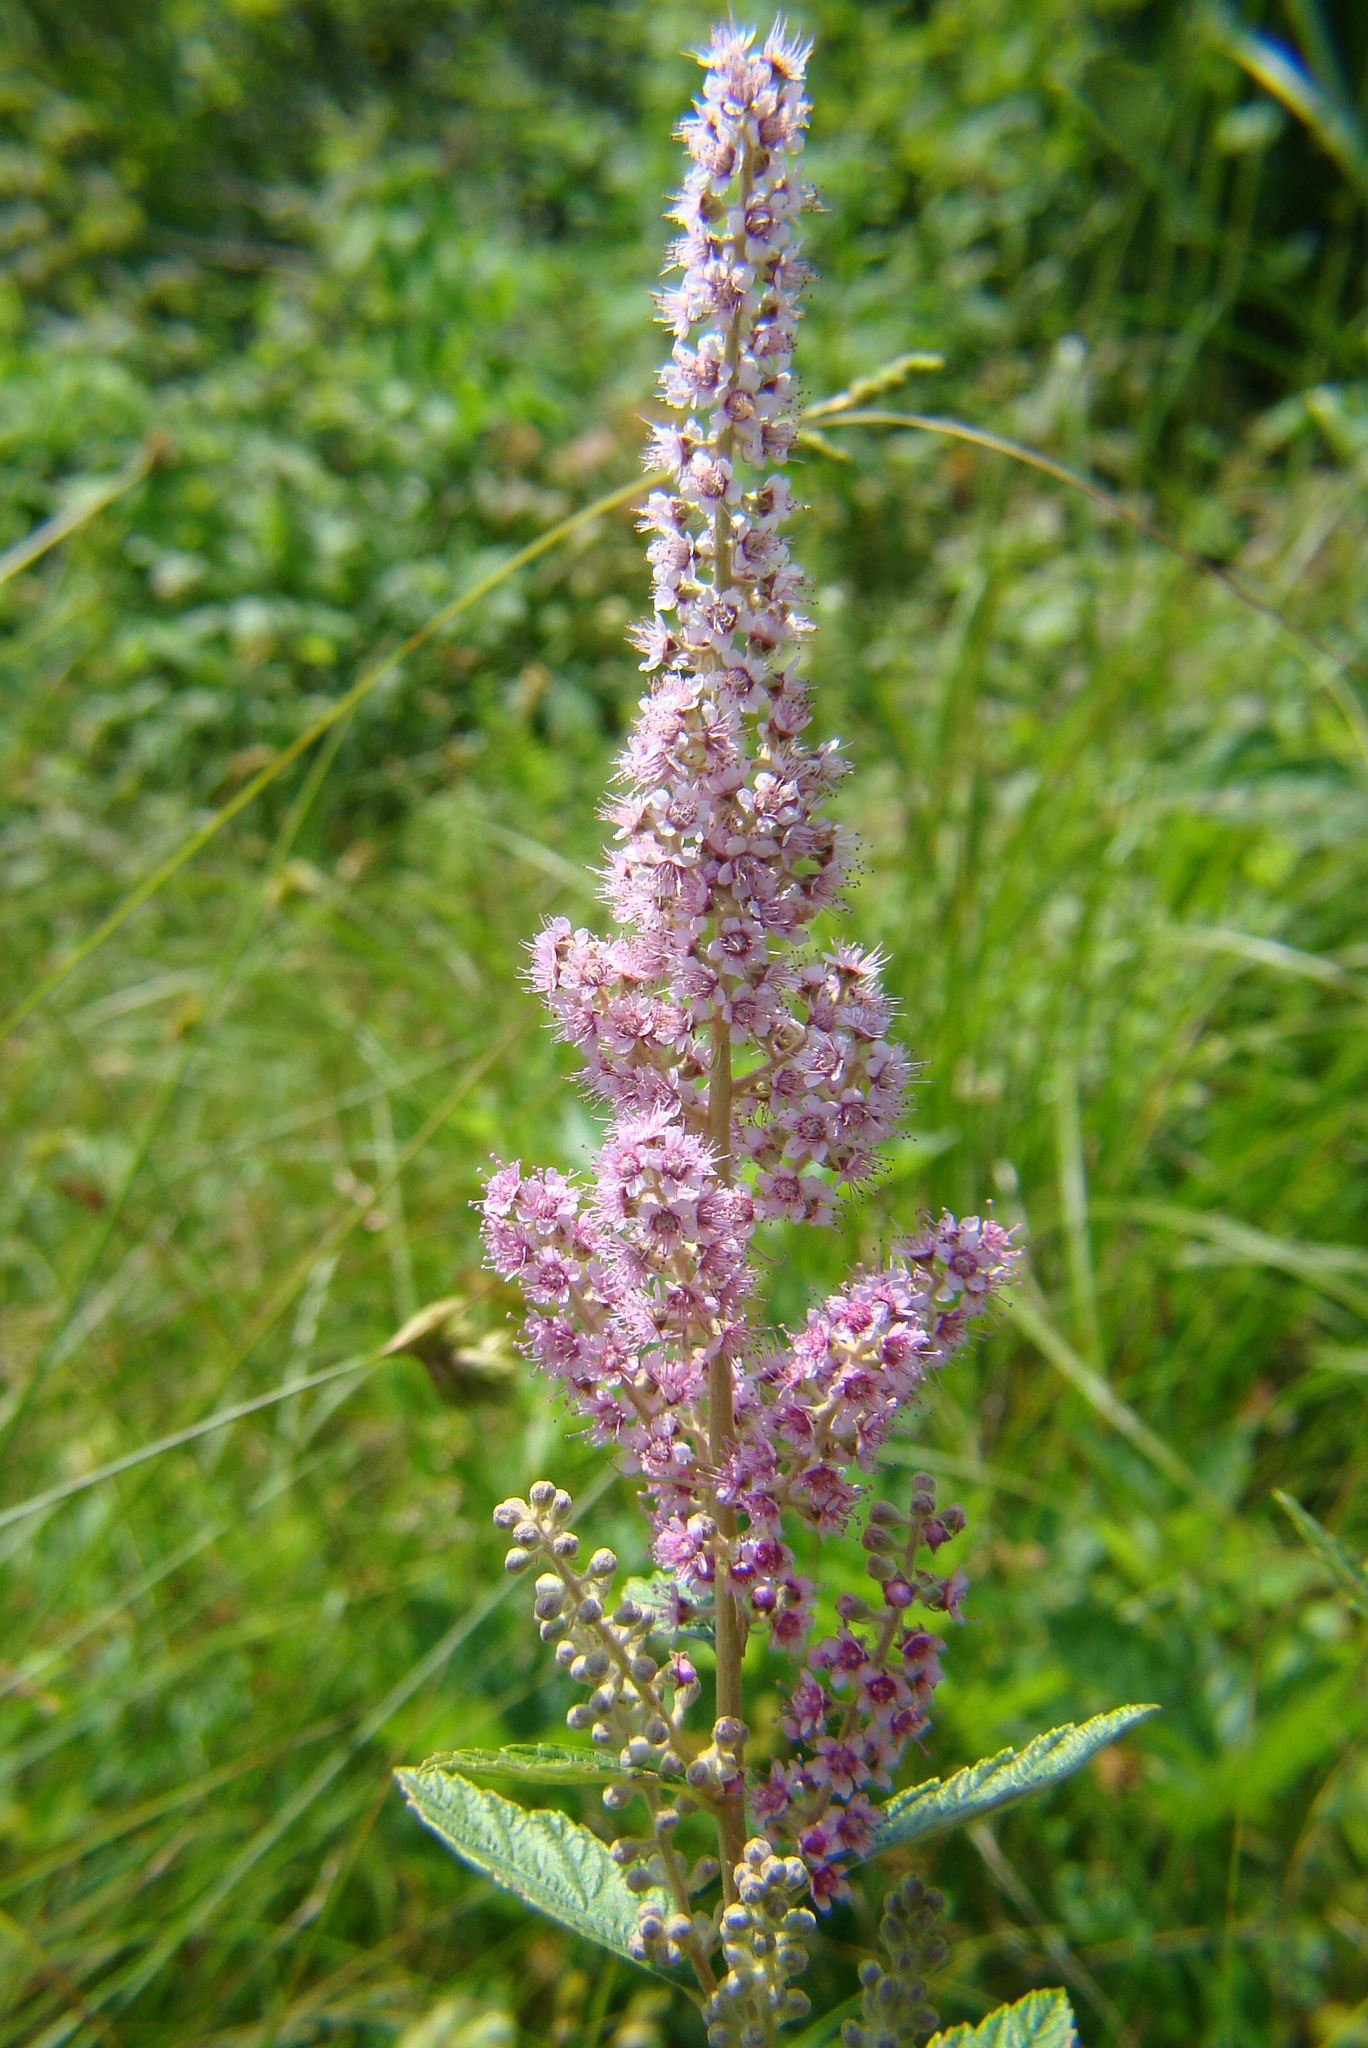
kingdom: Plantae
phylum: Tracheophyta
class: Magnoliopsida
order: Rosales
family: Rosaceae
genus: Spiraea
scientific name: Spiraea tomentosa
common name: Hardhack
